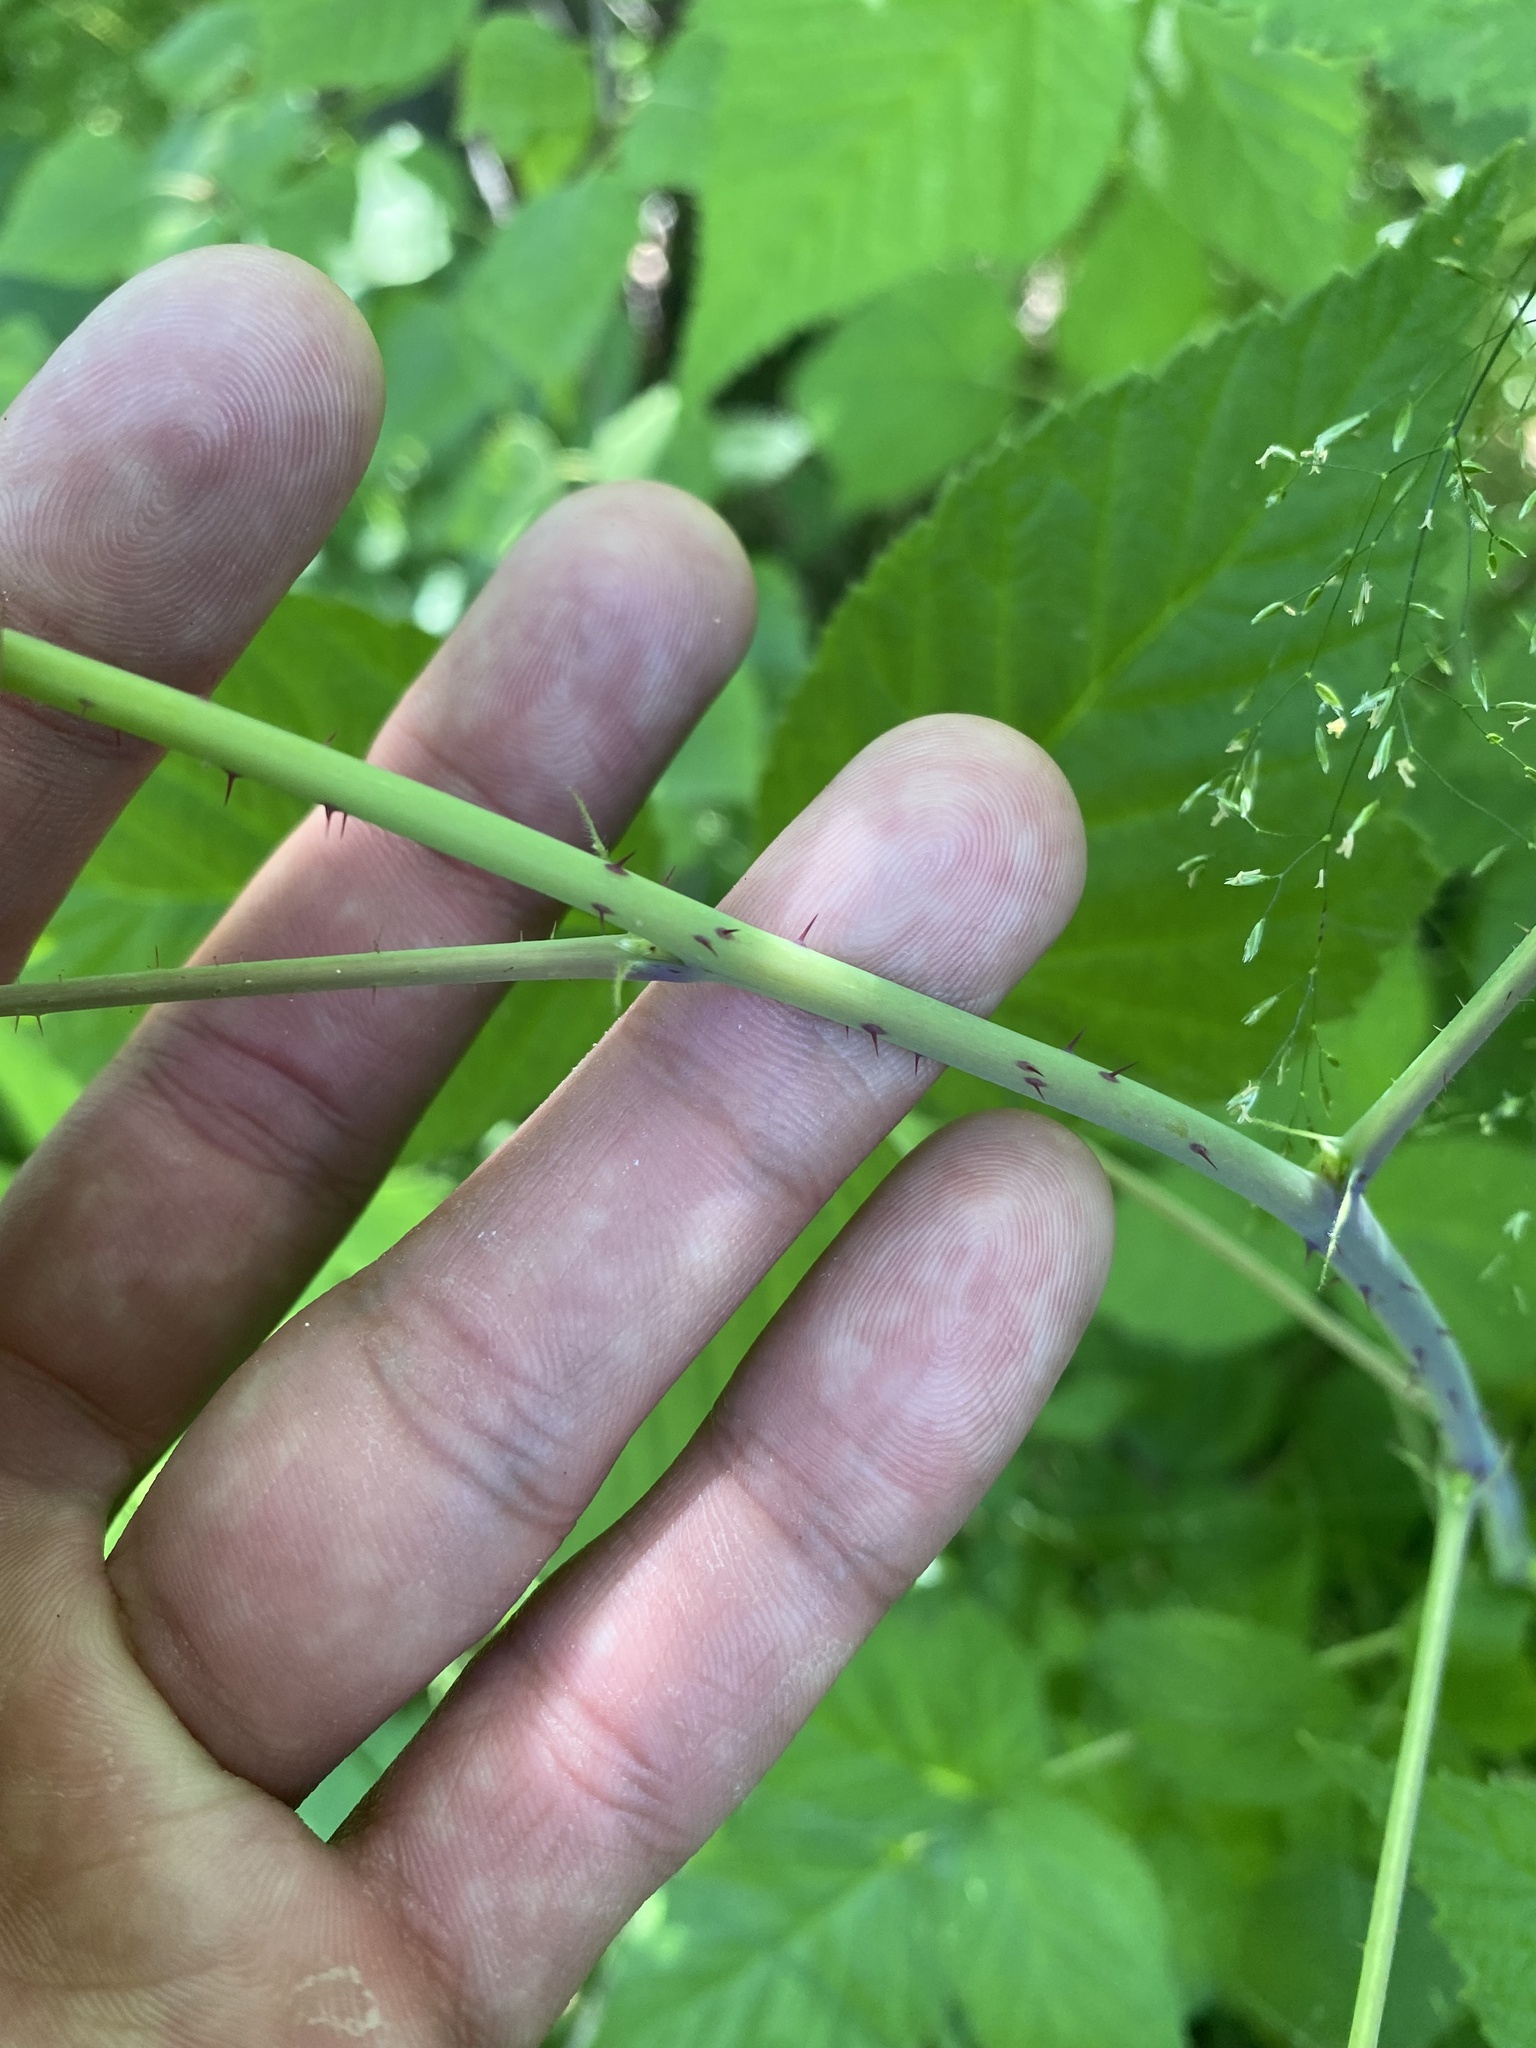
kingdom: Plantae
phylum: Tracheophyta
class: Magnoliopsida
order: Rosales
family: Rosaceae
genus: Rubus
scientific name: Rubus idaeus
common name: Raspberry
